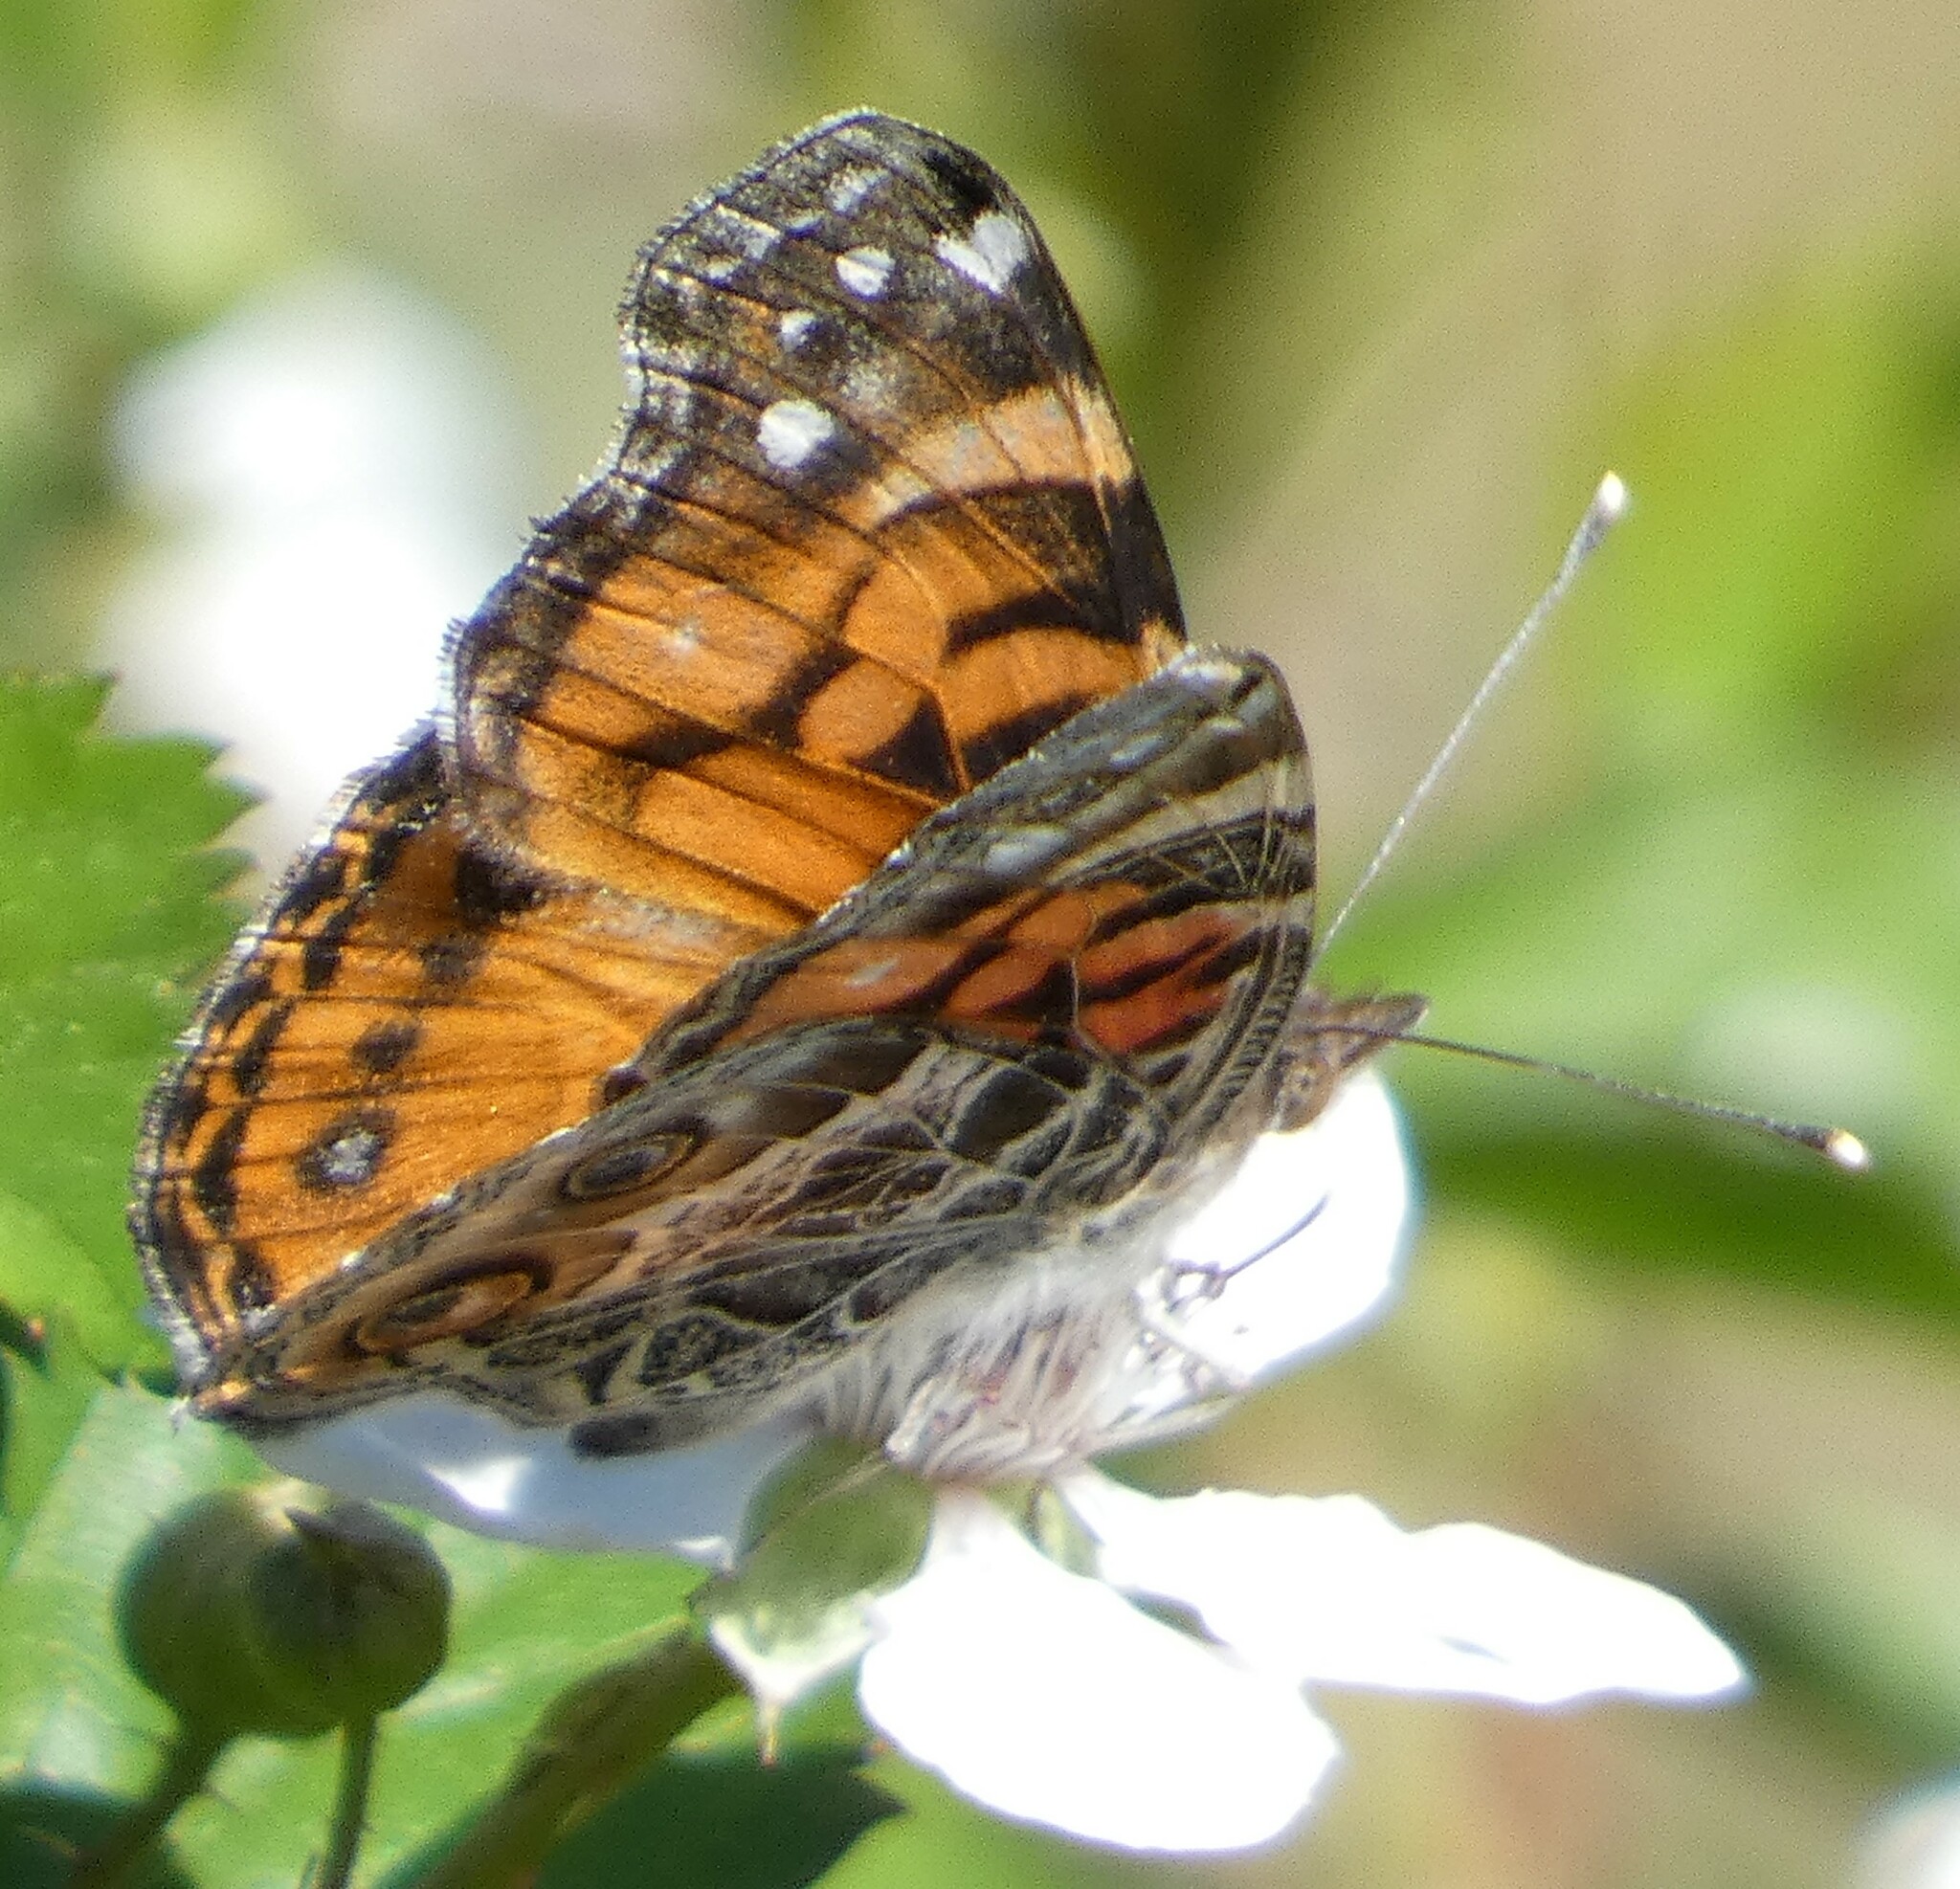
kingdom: Animalia
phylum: Arthropoda
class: Insecta
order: Lepidoptera
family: Nymphalidae
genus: Vanessa
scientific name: Vanessa virginiensis
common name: American lady
